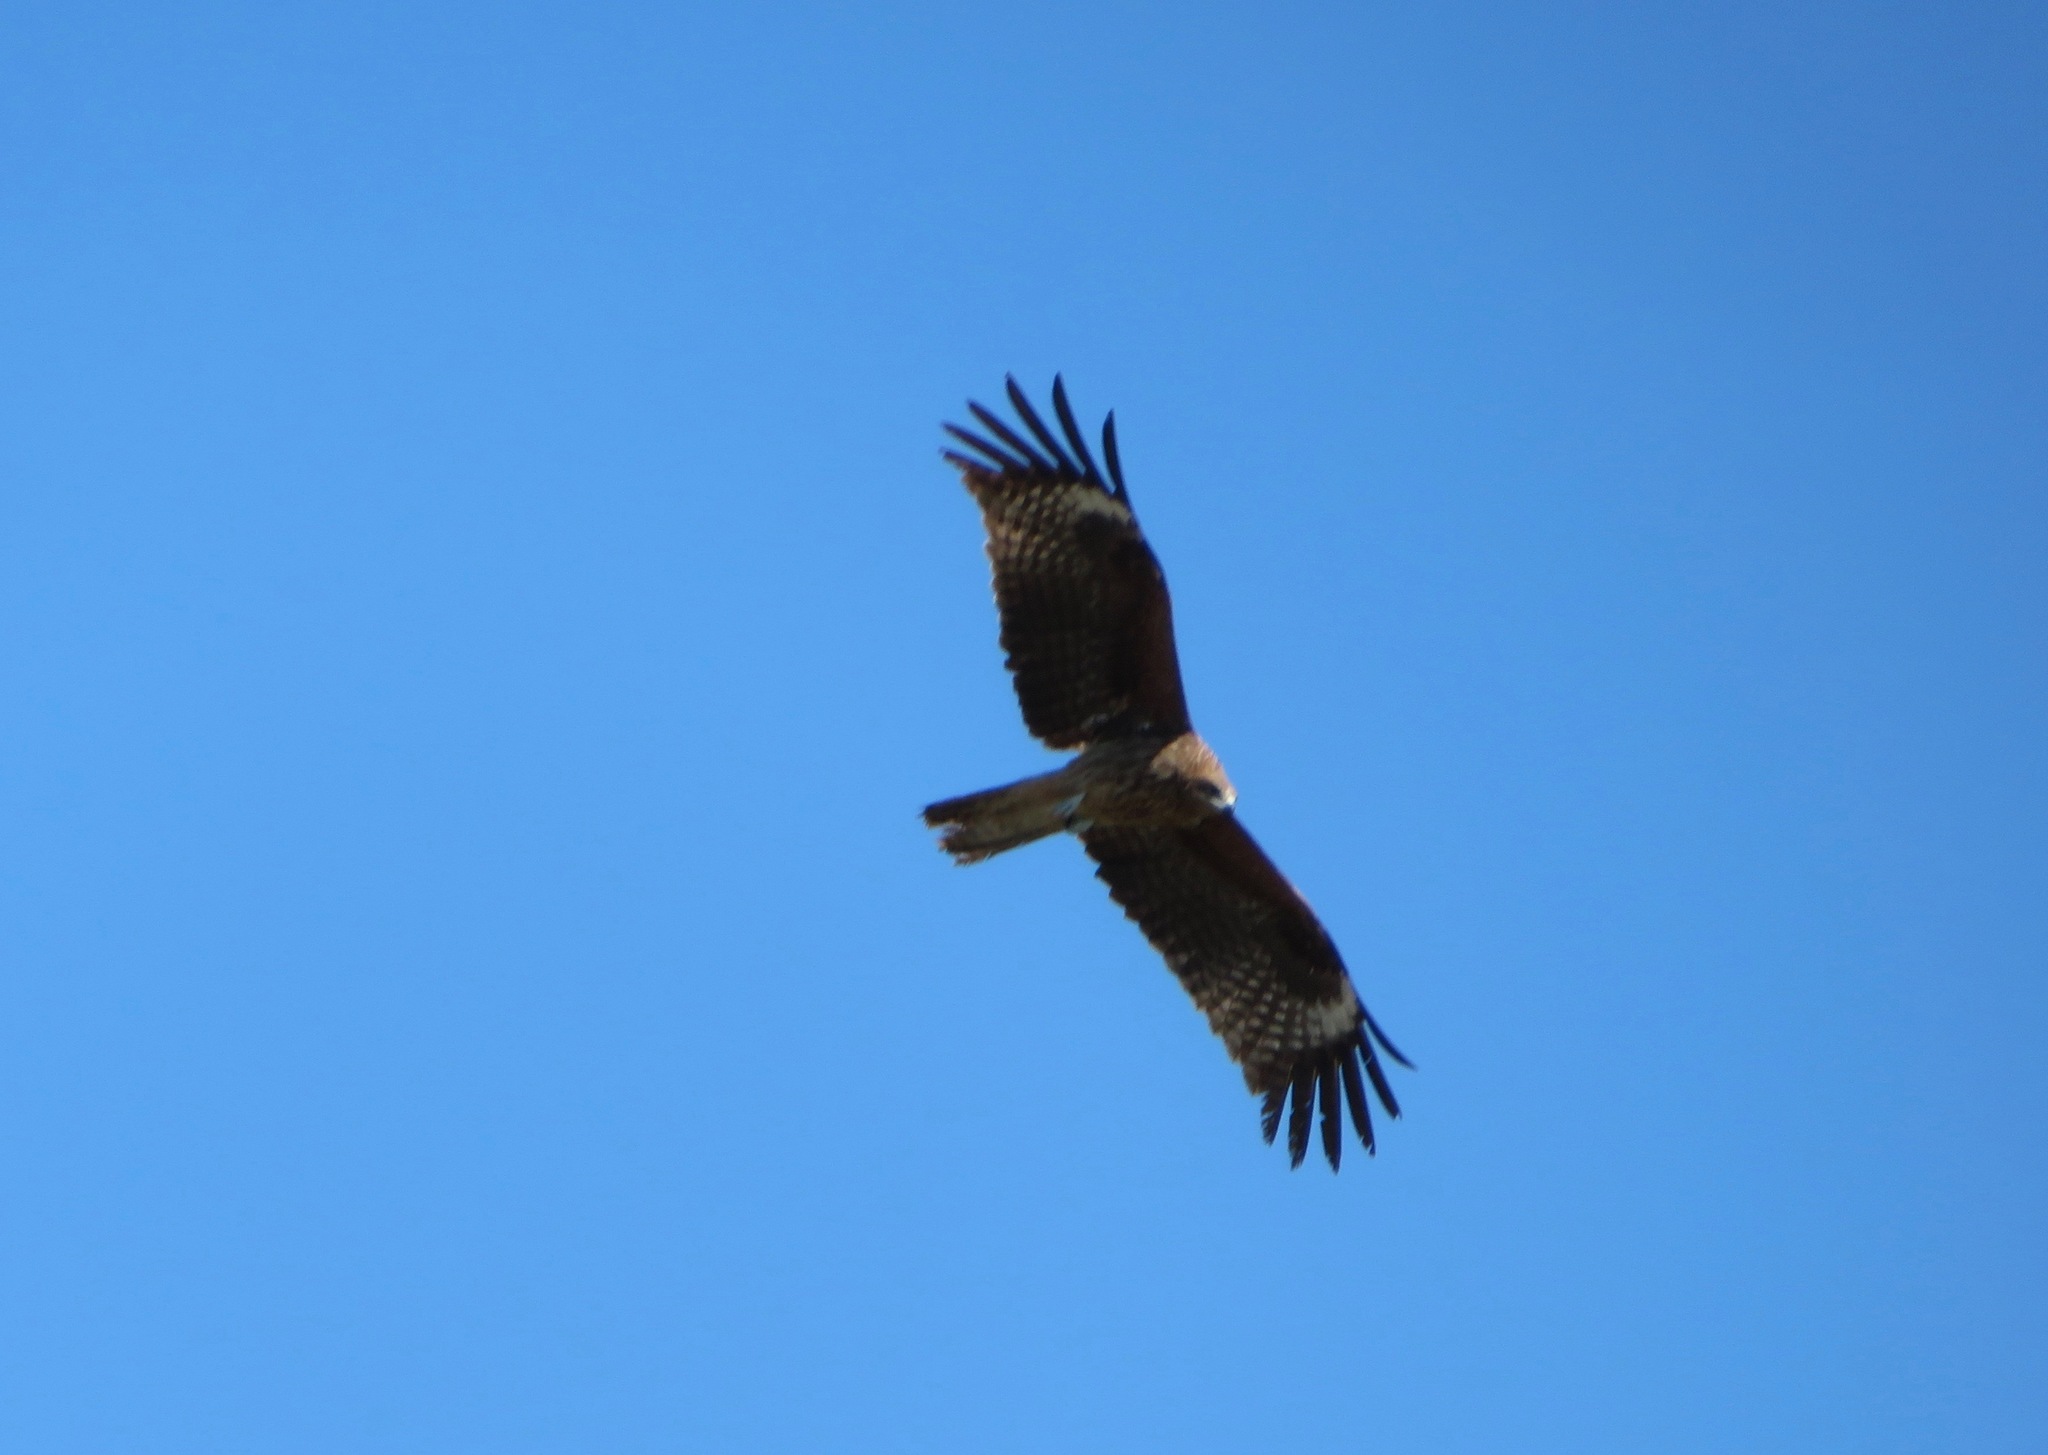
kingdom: Animalia
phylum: Chordata
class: Aves
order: Accipitriformes
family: Accipitridae
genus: Milvus
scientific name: Milvus migrans
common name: Black kite
